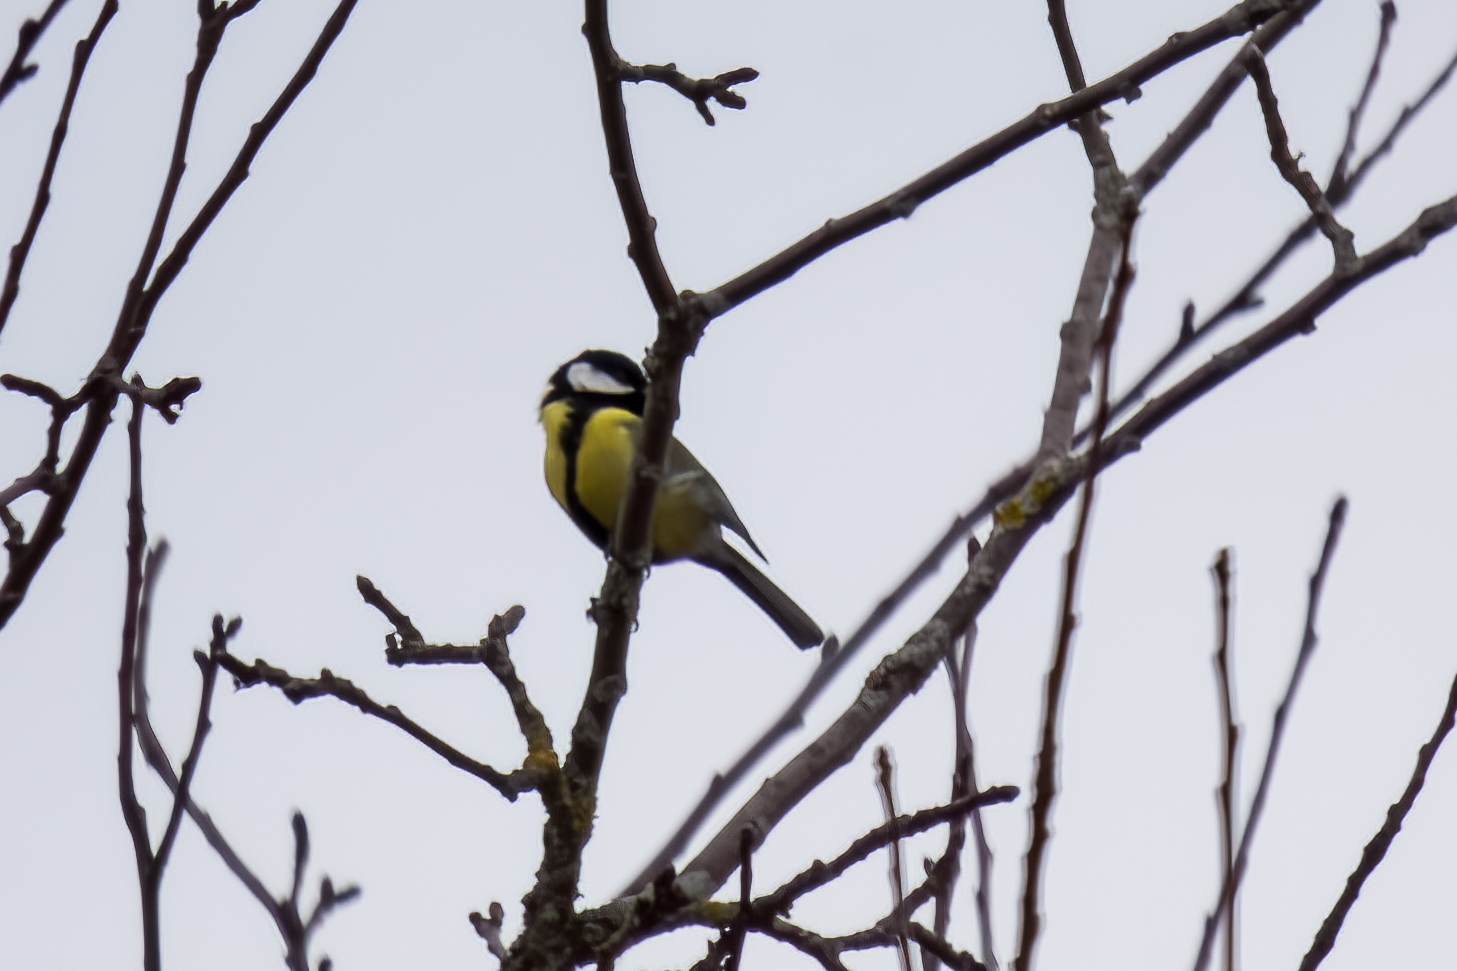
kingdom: Animalia
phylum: Chordata
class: Aves
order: Passeriformes
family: Paridae
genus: Parus
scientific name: Parus major
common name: Great tit
